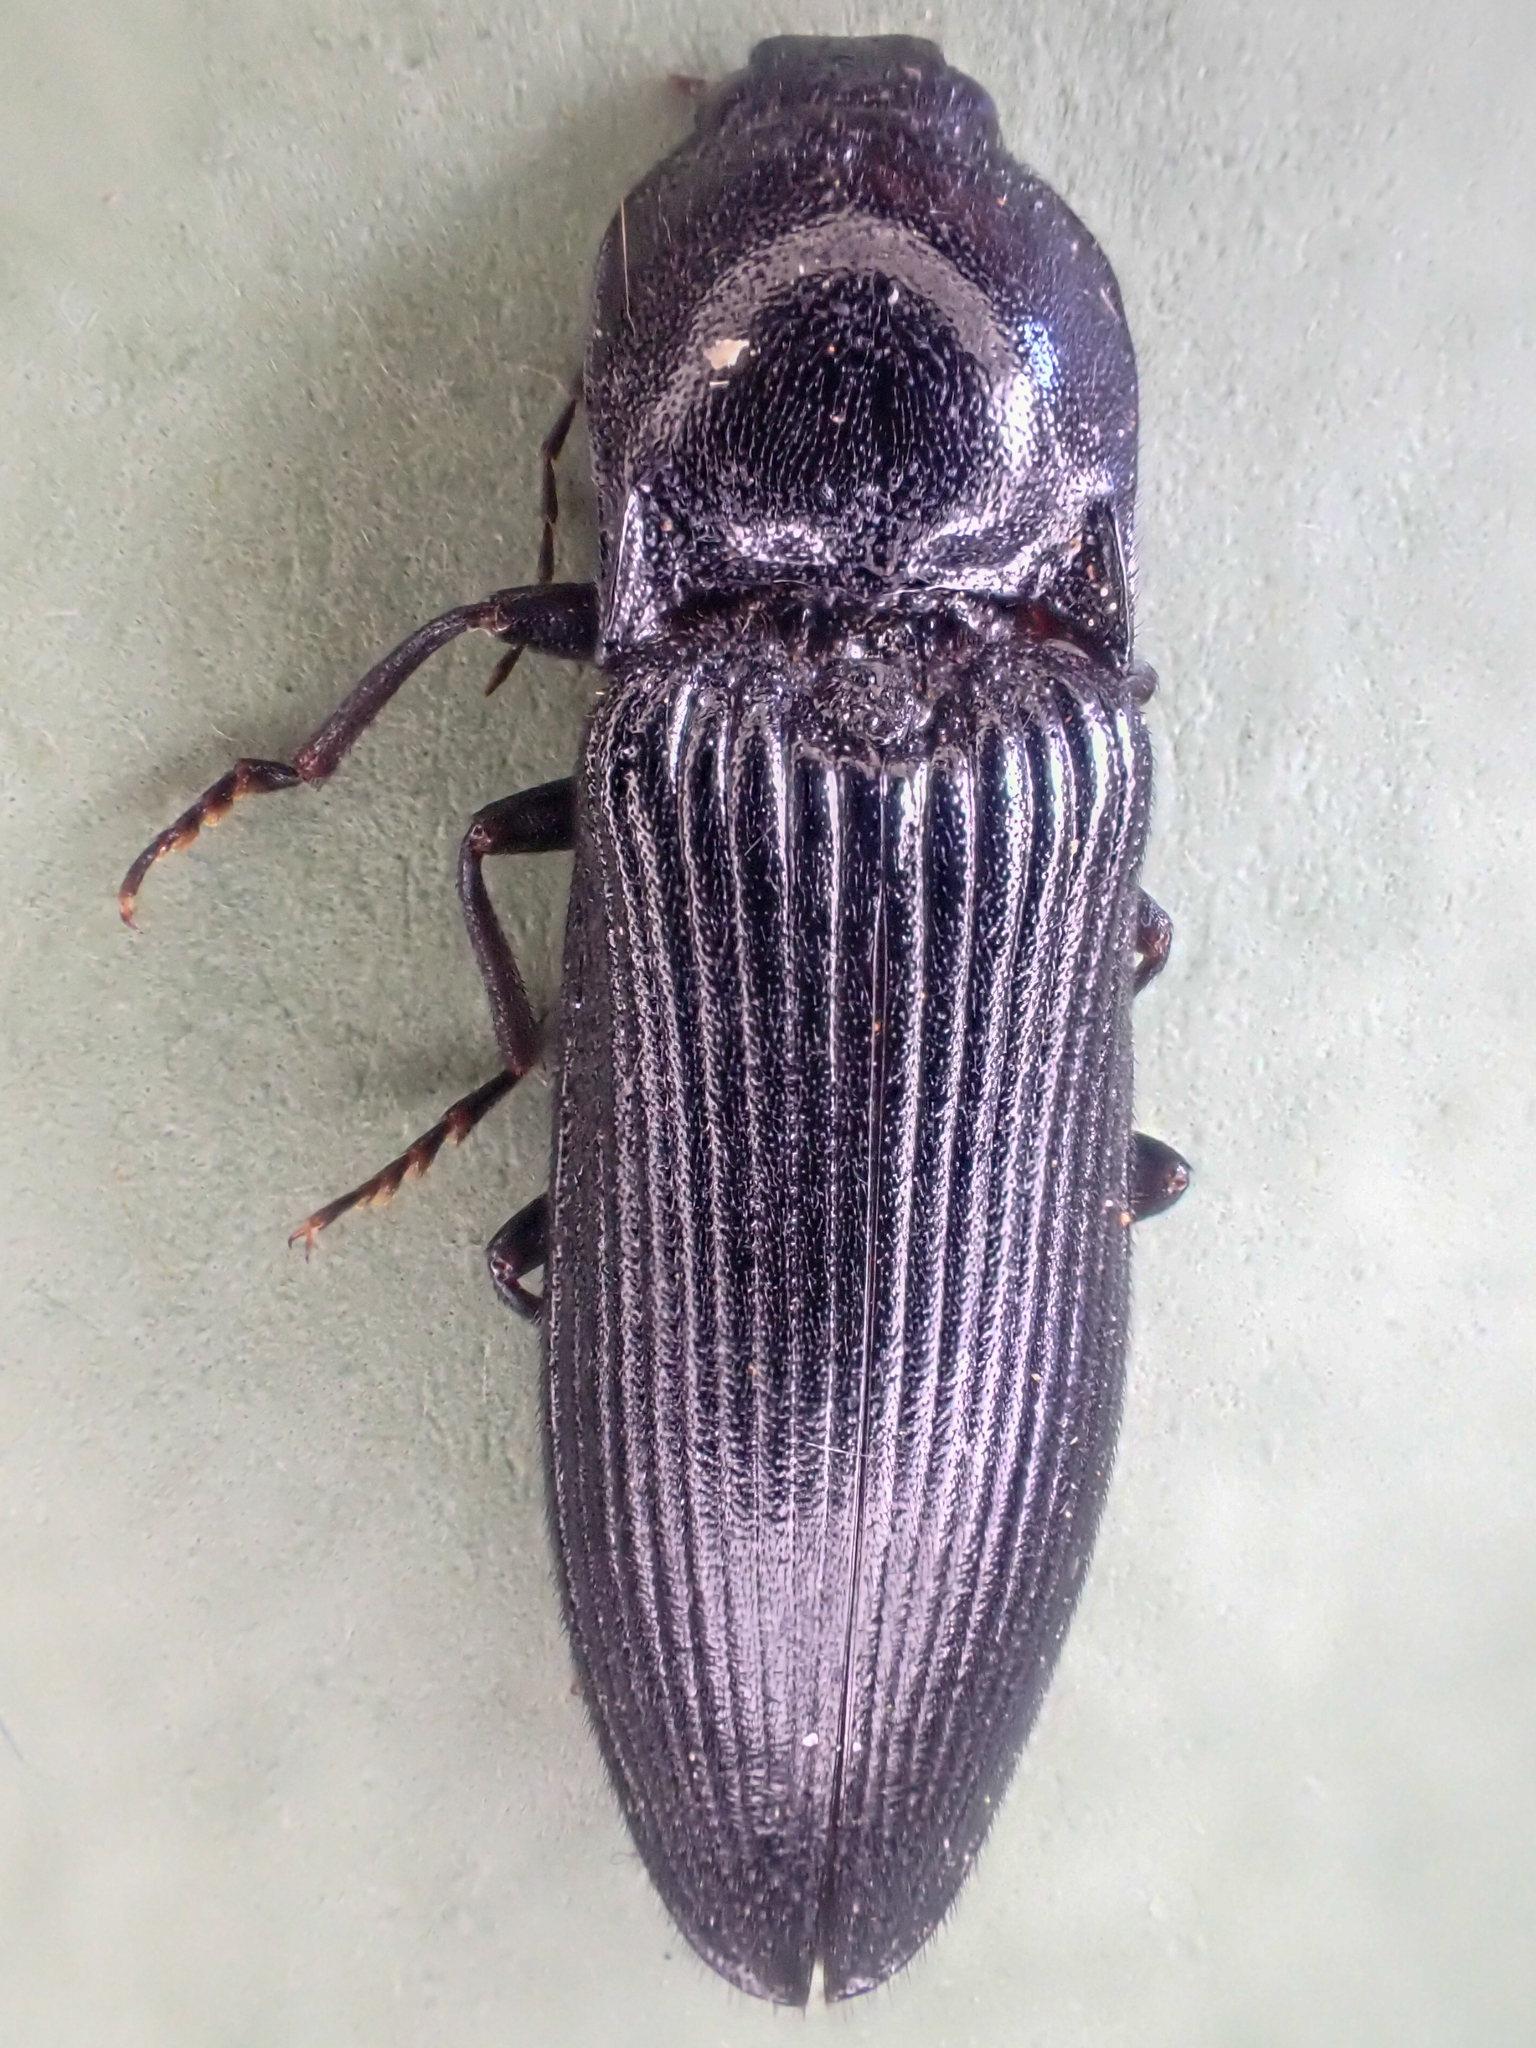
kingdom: Animalia
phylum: Arthropoda
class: Insecta
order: Coleoptera
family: Elateridae
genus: Hemicrepidius
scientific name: Hemicrepidius morio
